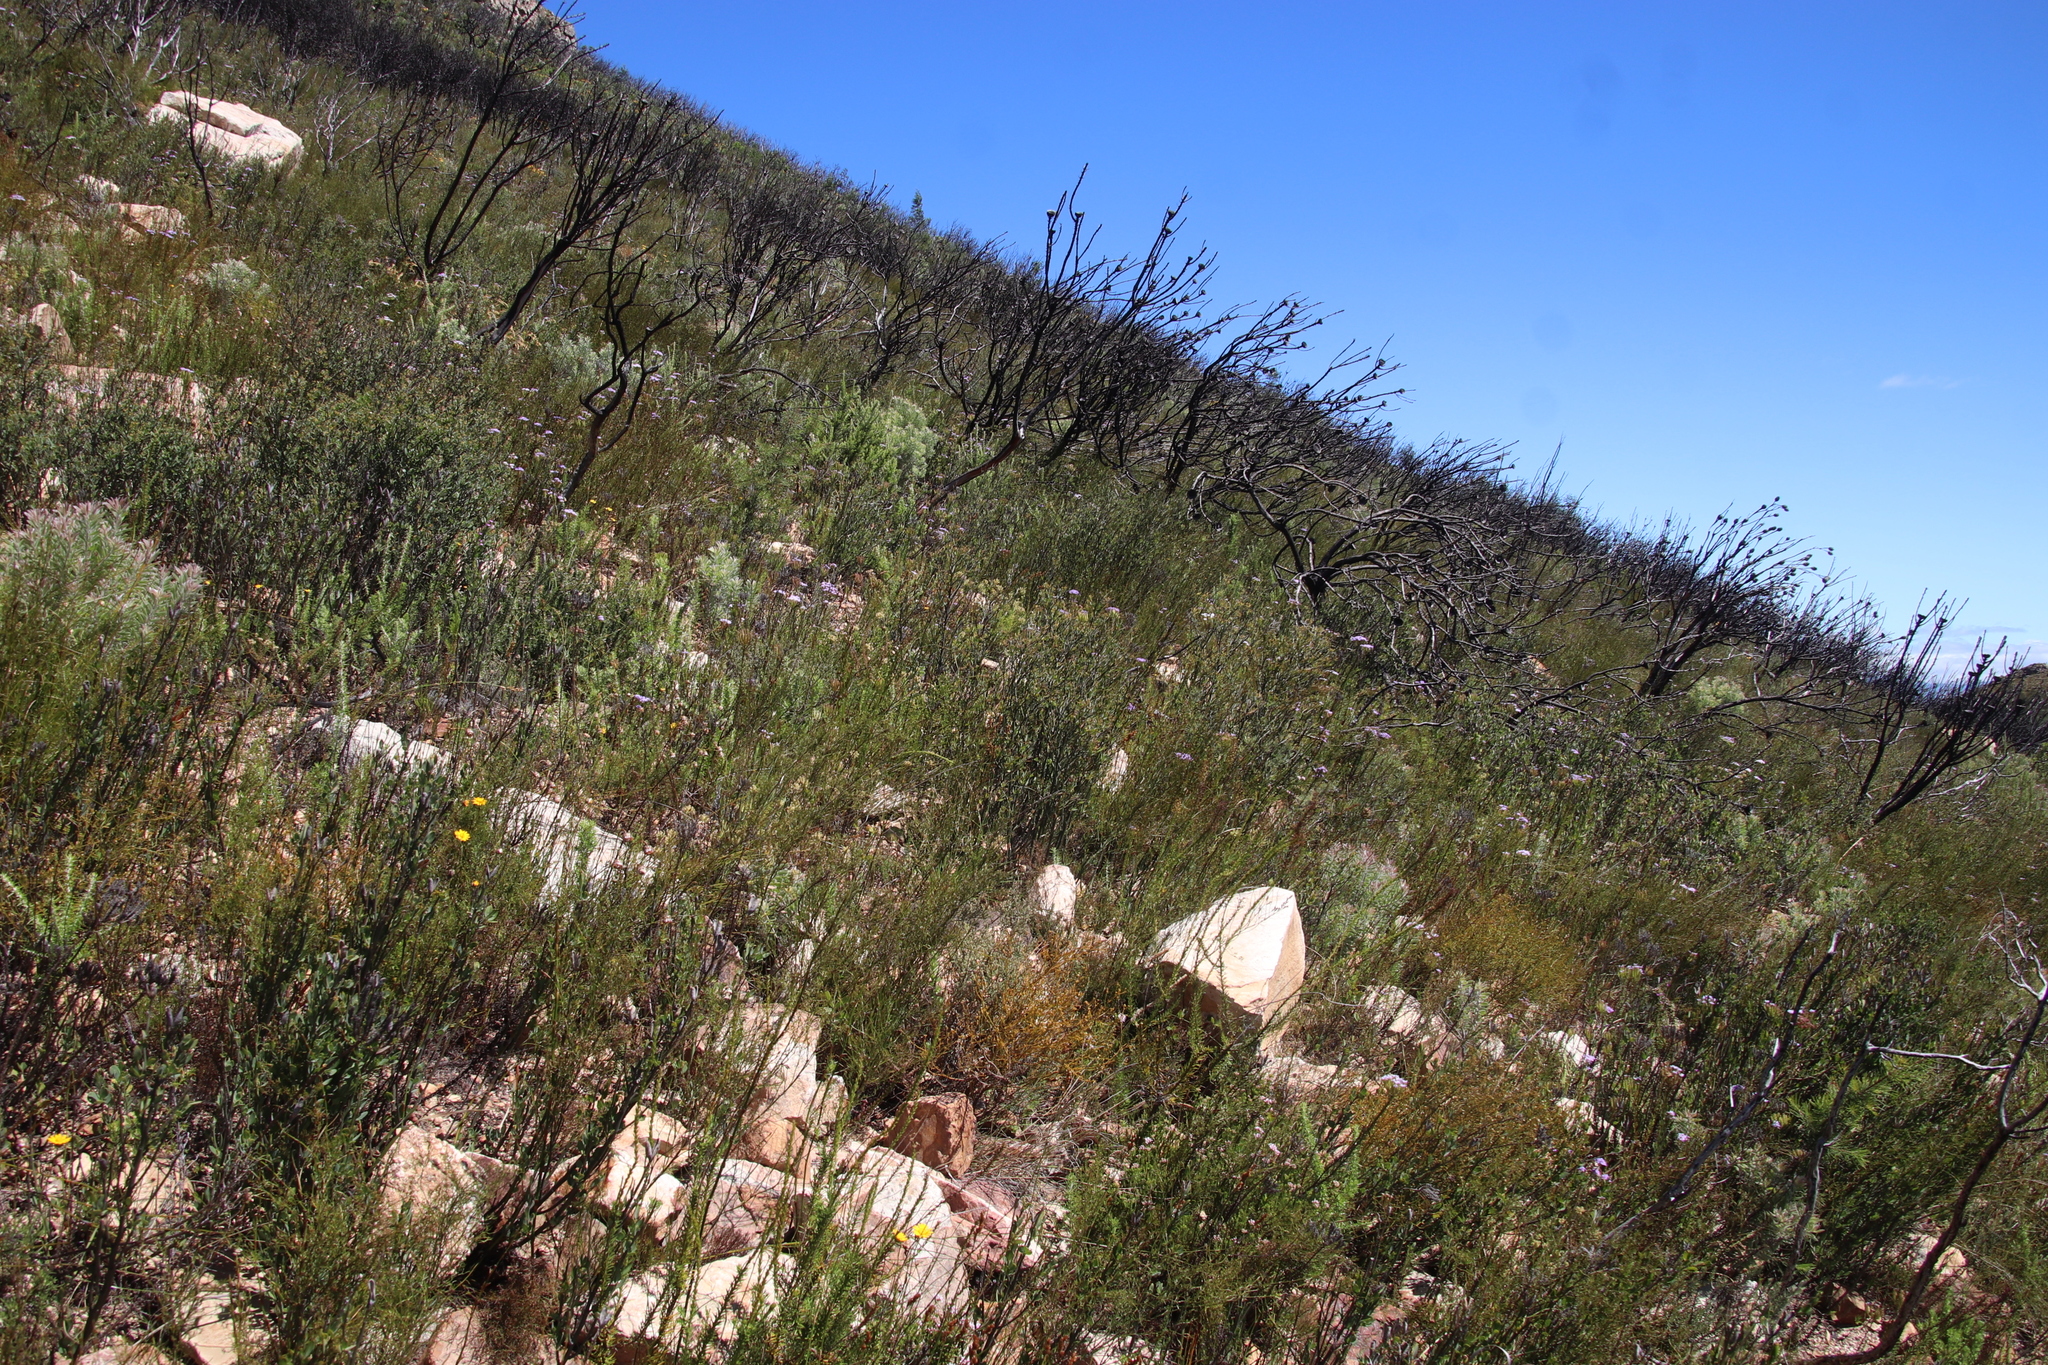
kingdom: Plantae
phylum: Tracheophyta
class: Magnoliopsida
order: Solanales
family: Montiniaceae
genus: Montinia
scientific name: Montinia caryophyllacea
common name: Wild clove-bush
